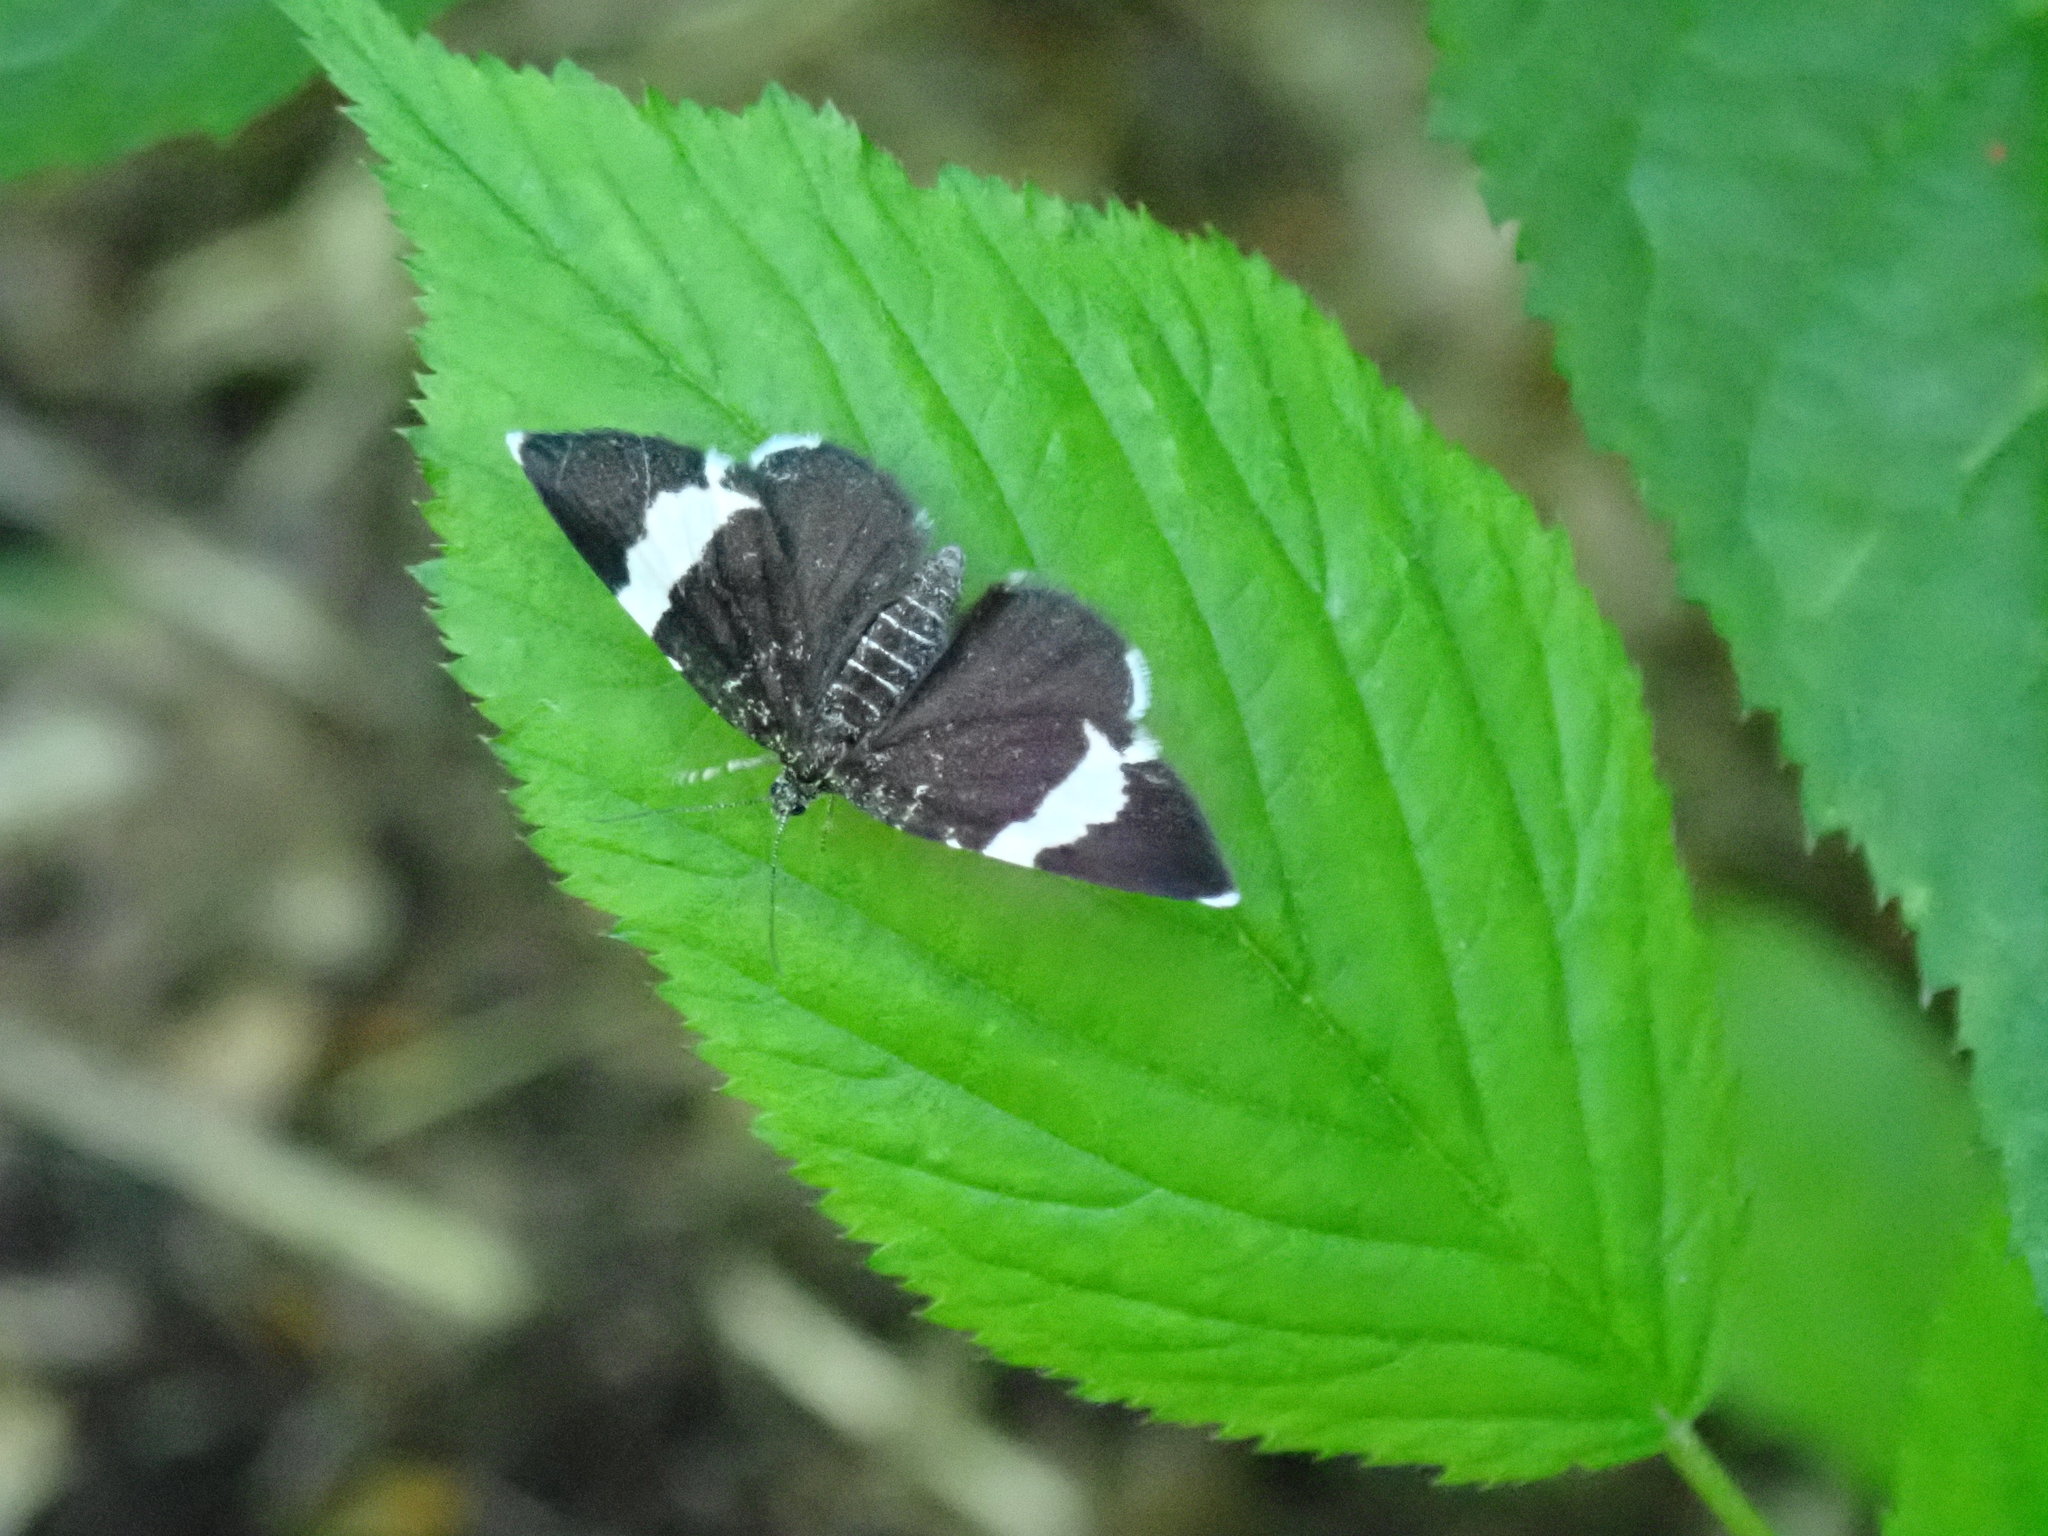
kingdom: Animalia
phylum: Arthropoda
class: Insecta
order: Lepidoptera
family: Geometridae
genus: Trichodezia
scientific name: Trichodezia albovittata
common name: White striped black
